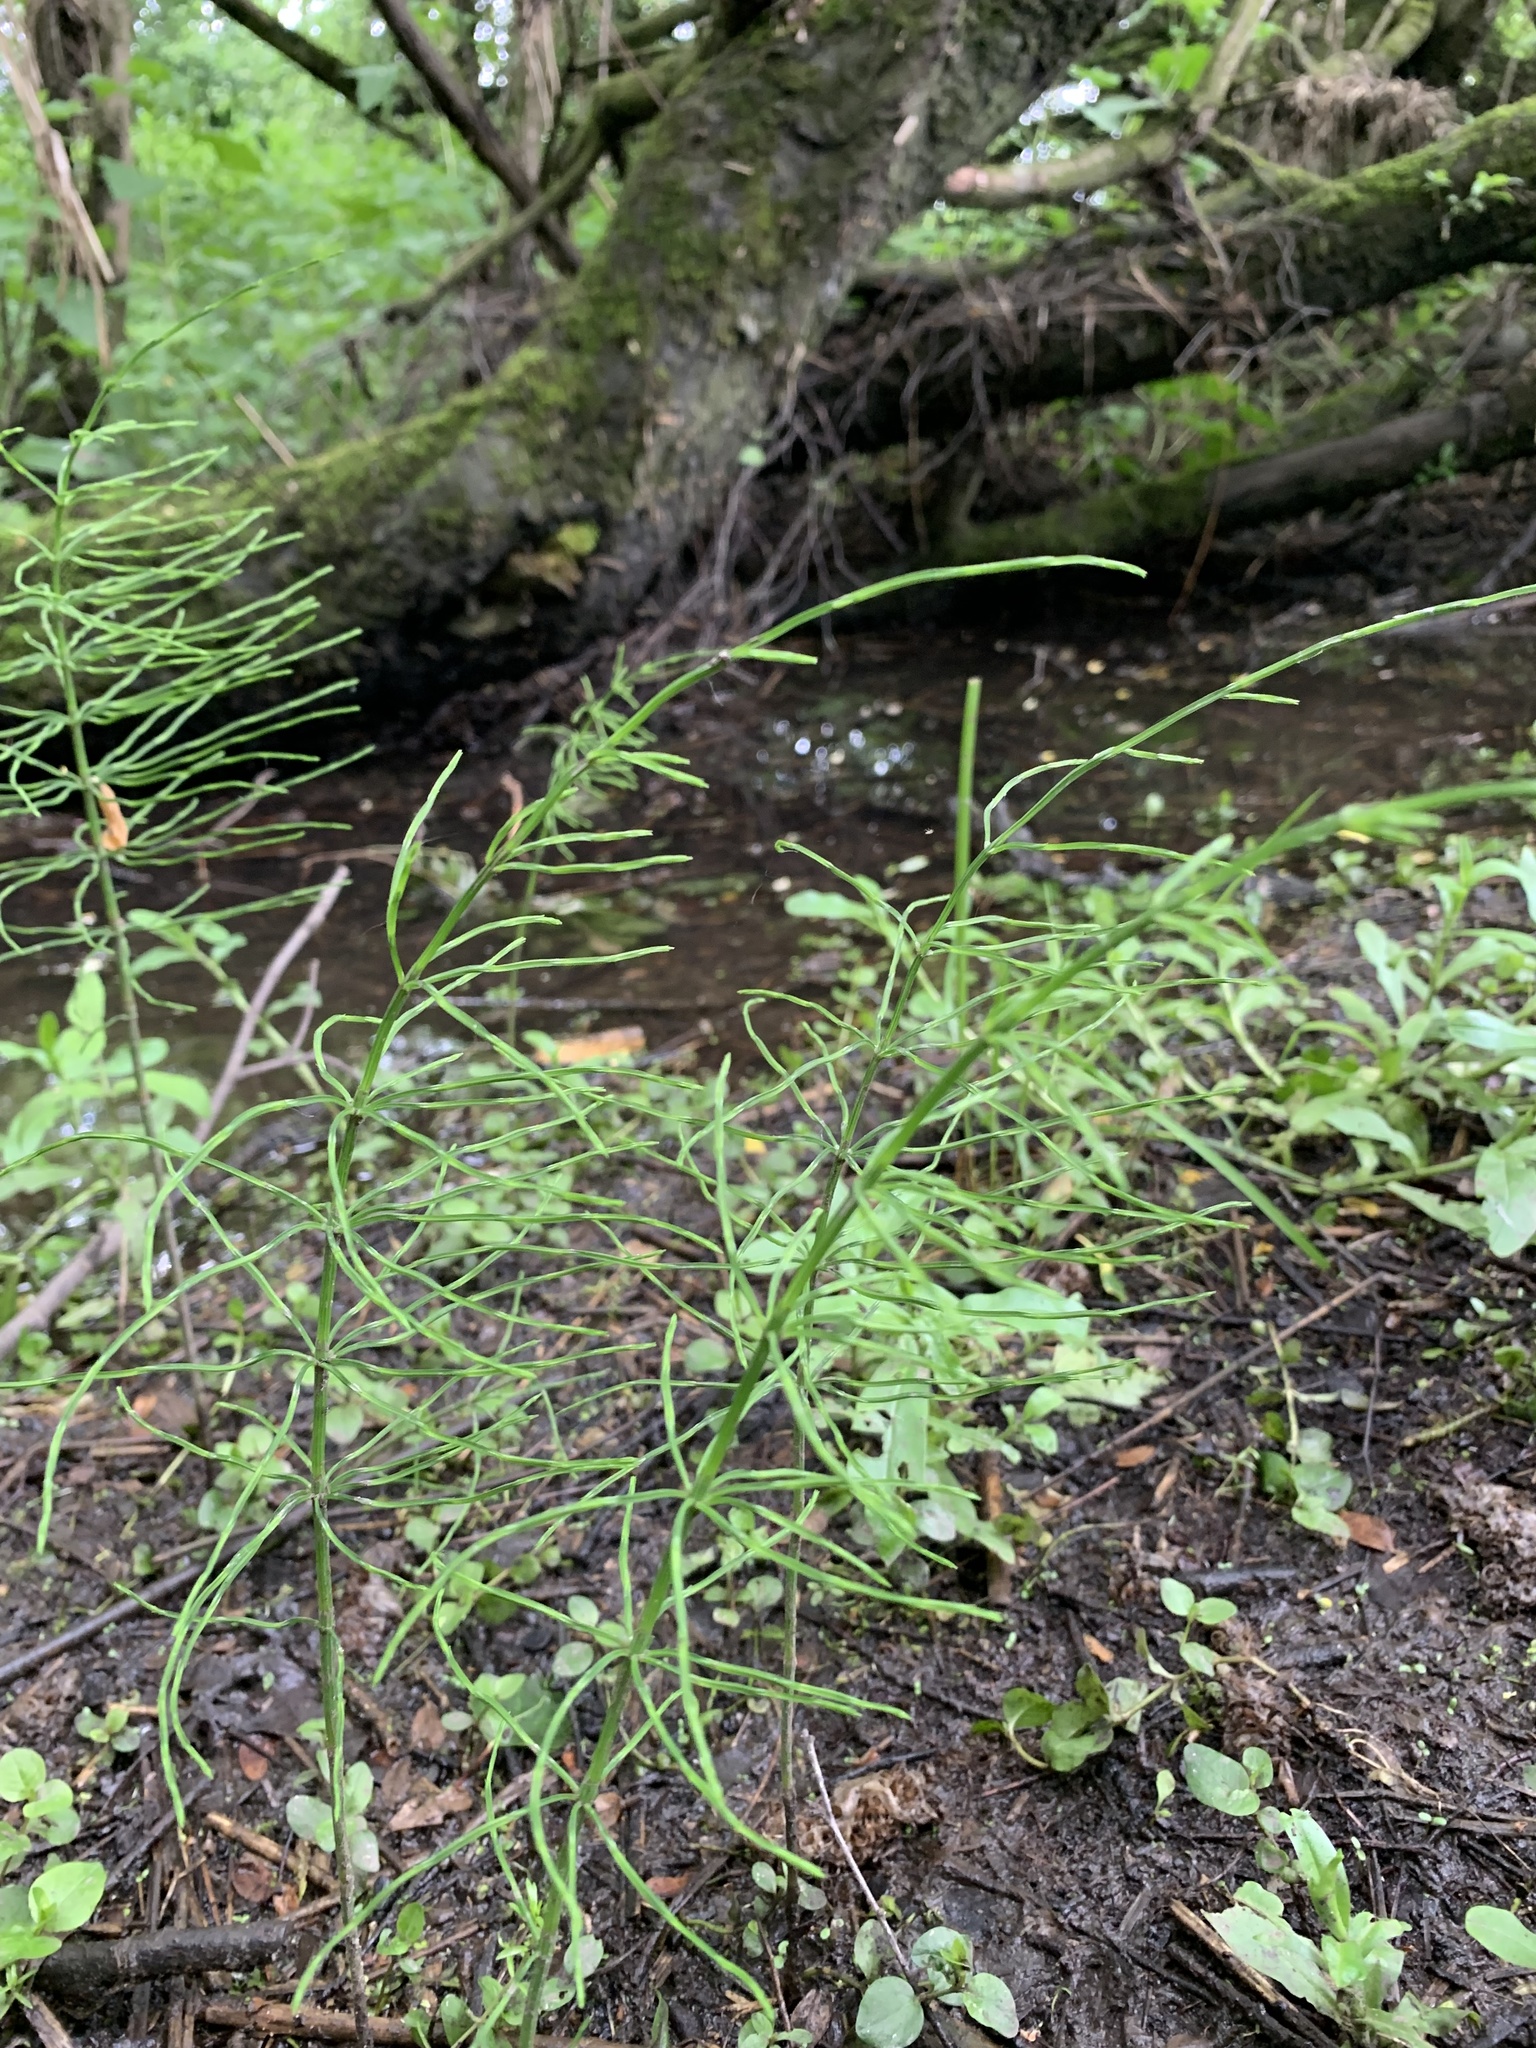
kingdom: Plantae
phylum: Tracheophyta
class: Polypodiopsida
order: Equisetales
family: Equisetaceae
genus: Equisetum
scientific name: Equisetum arvense
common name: Field horsetail
